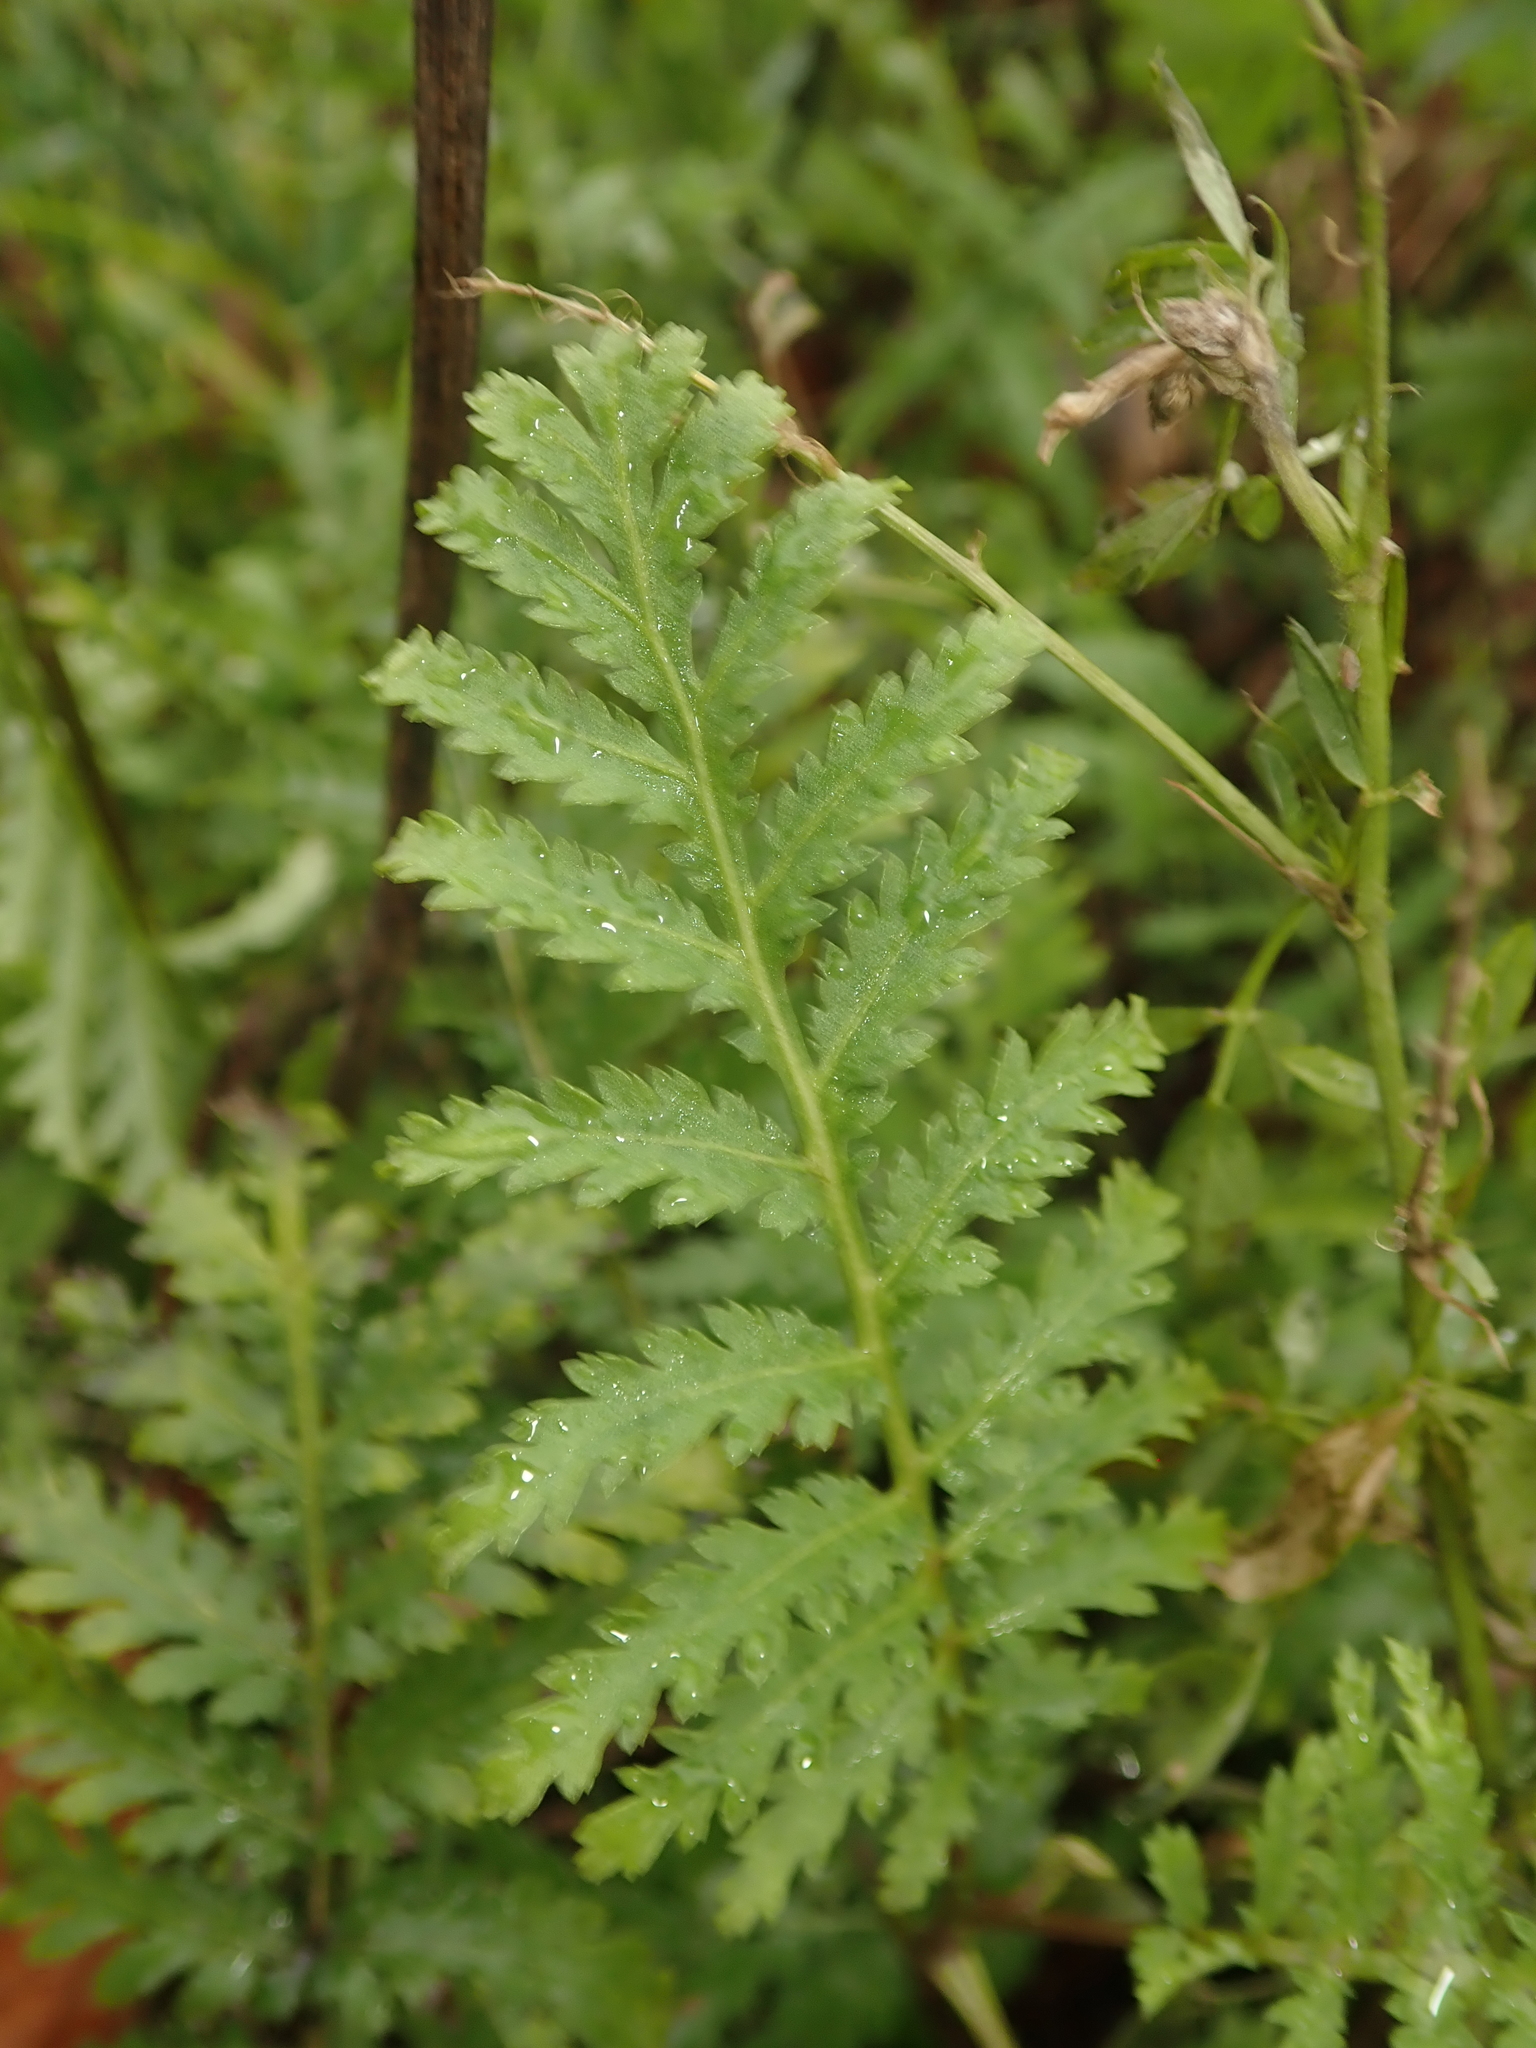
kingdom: Plantae
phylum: Tracheophyta
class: Magnoliopsida
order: Asterales
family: Asteraceae
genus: Tanacetum
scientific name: Tanacetum vulgare
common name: Common tansy
